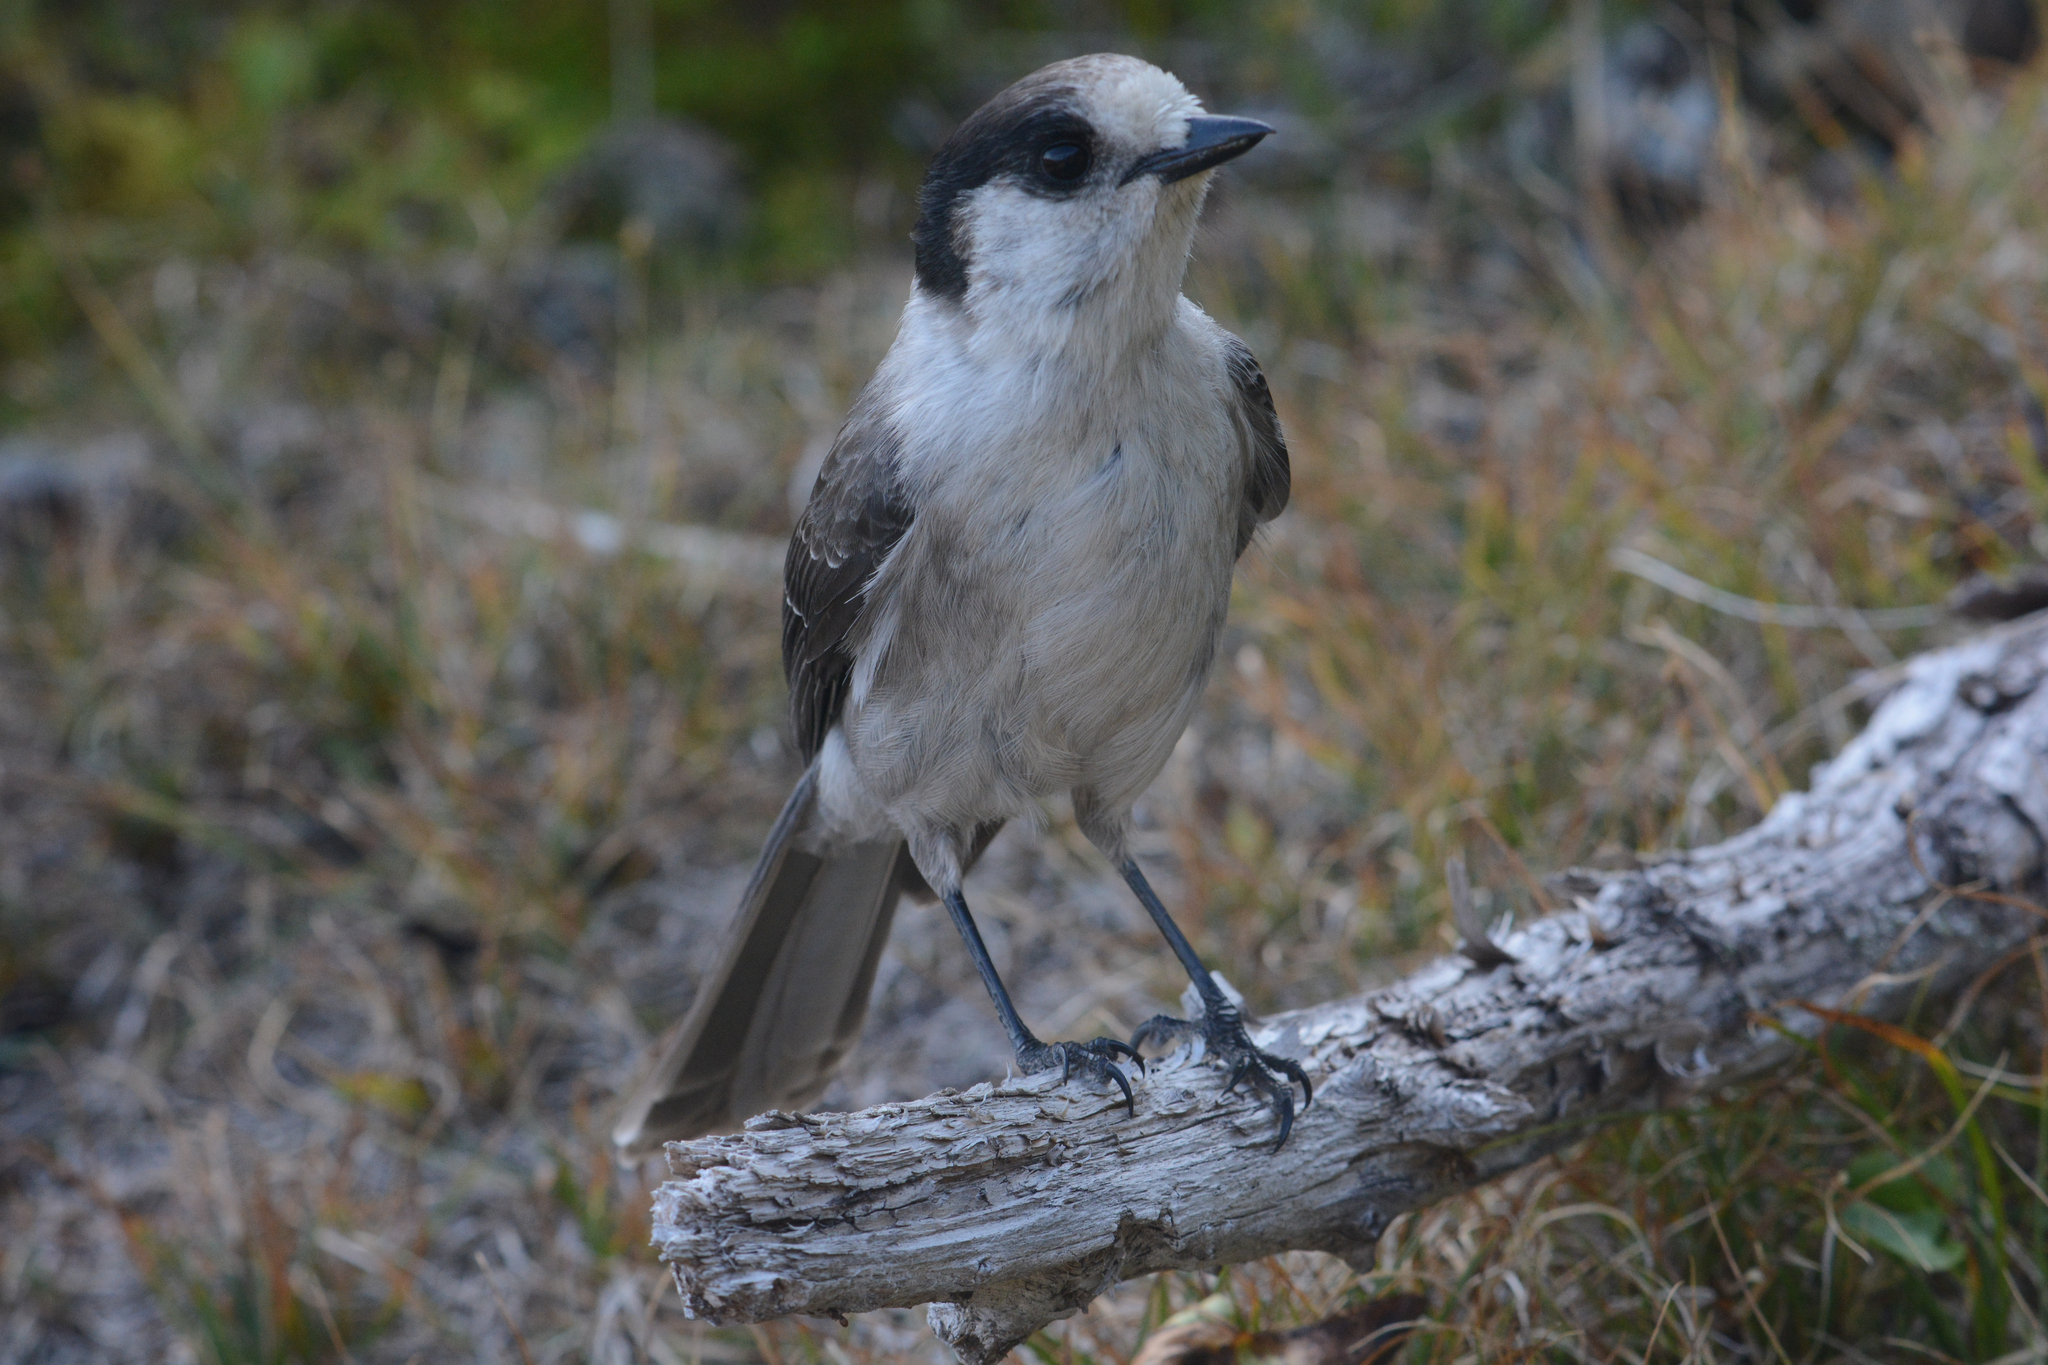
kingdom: Animalia
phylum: Chordata
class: Aves
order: Passeriformes
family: Corvidae
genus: Perisoreus
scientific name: Perisoreus canadensis
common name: Gray jay
